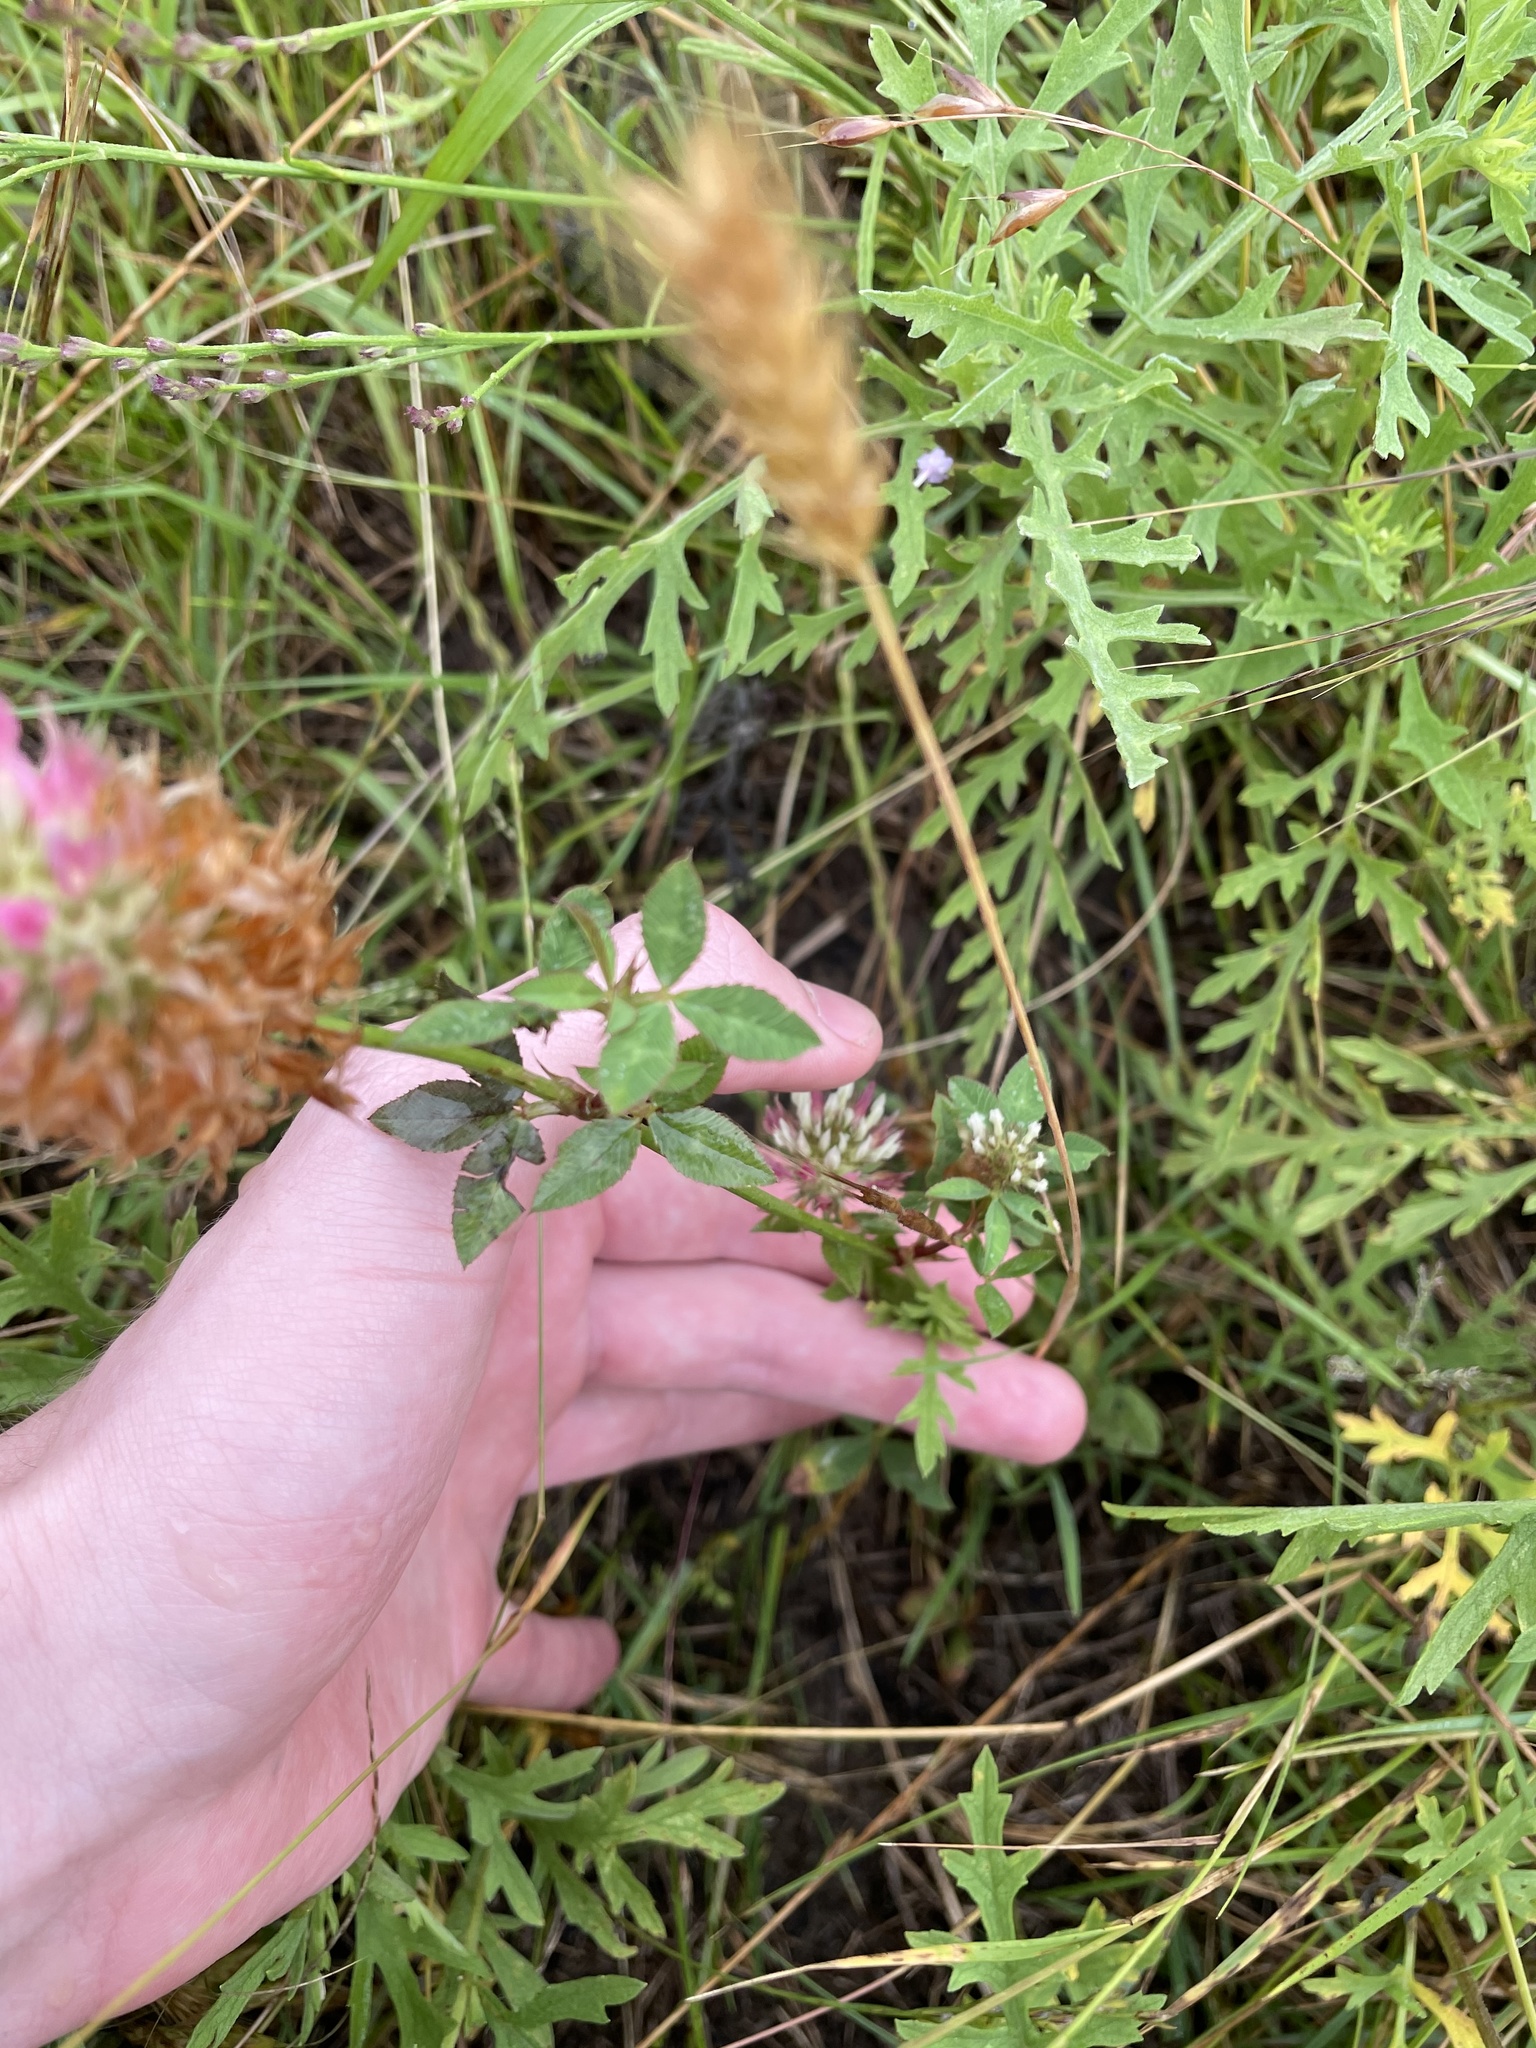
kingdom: Plantae
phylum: Tracheophyta
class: Magnoliopsida
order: Fabales
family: Fabaceae
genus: Trifolium
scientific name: Trifolium vesiculosum
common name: Arrowleaf clover
